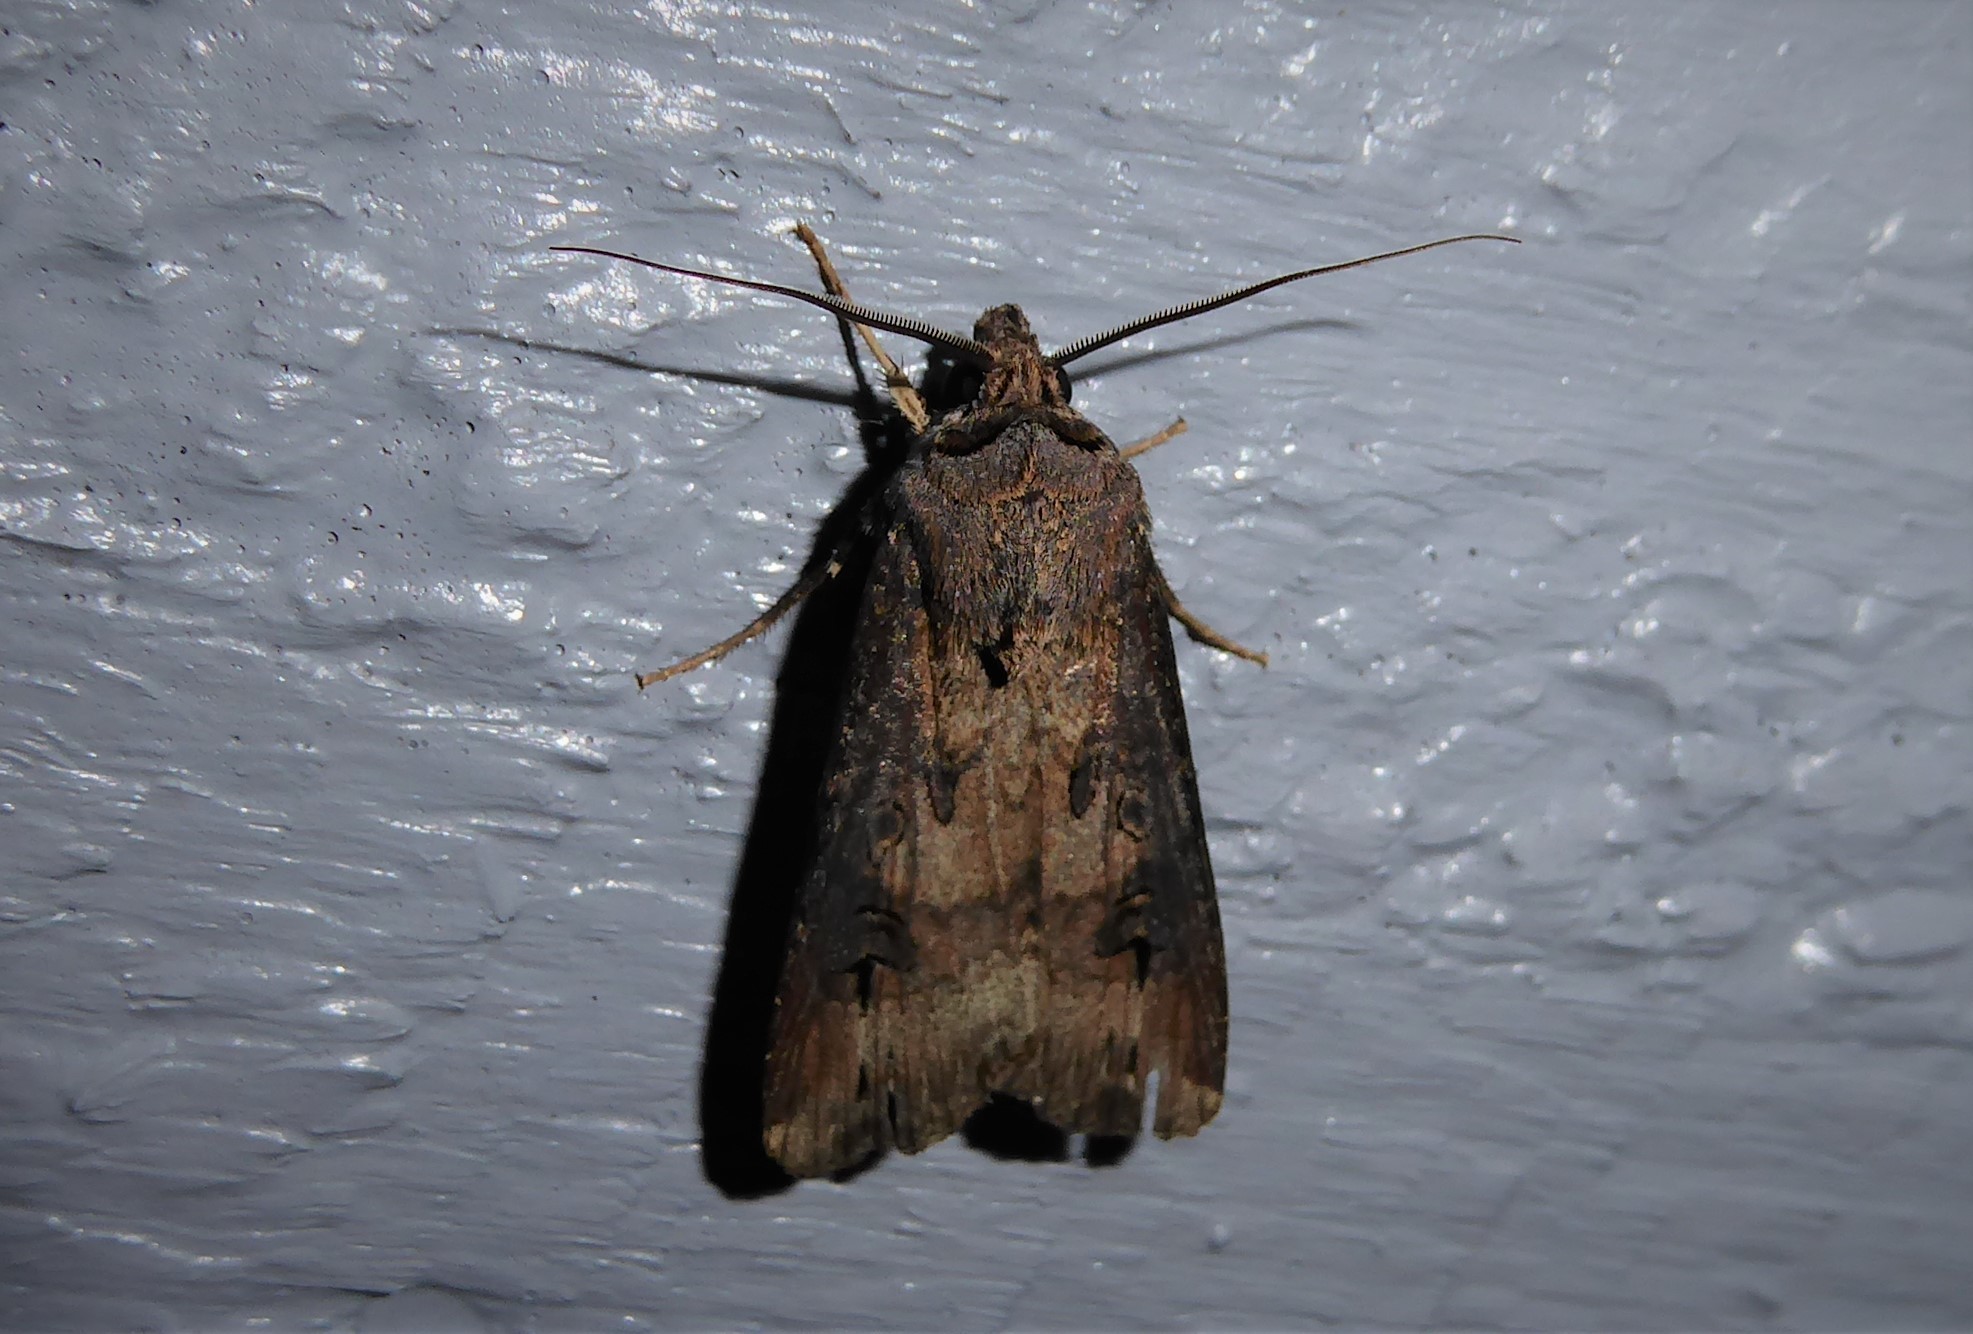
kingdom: Animalia
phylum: Arthropoda
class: Insecta
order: Lepidoptera
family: Noctuidae
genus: Agrotis
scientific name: Agrotis ipsilon
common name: Dark sword-grass
